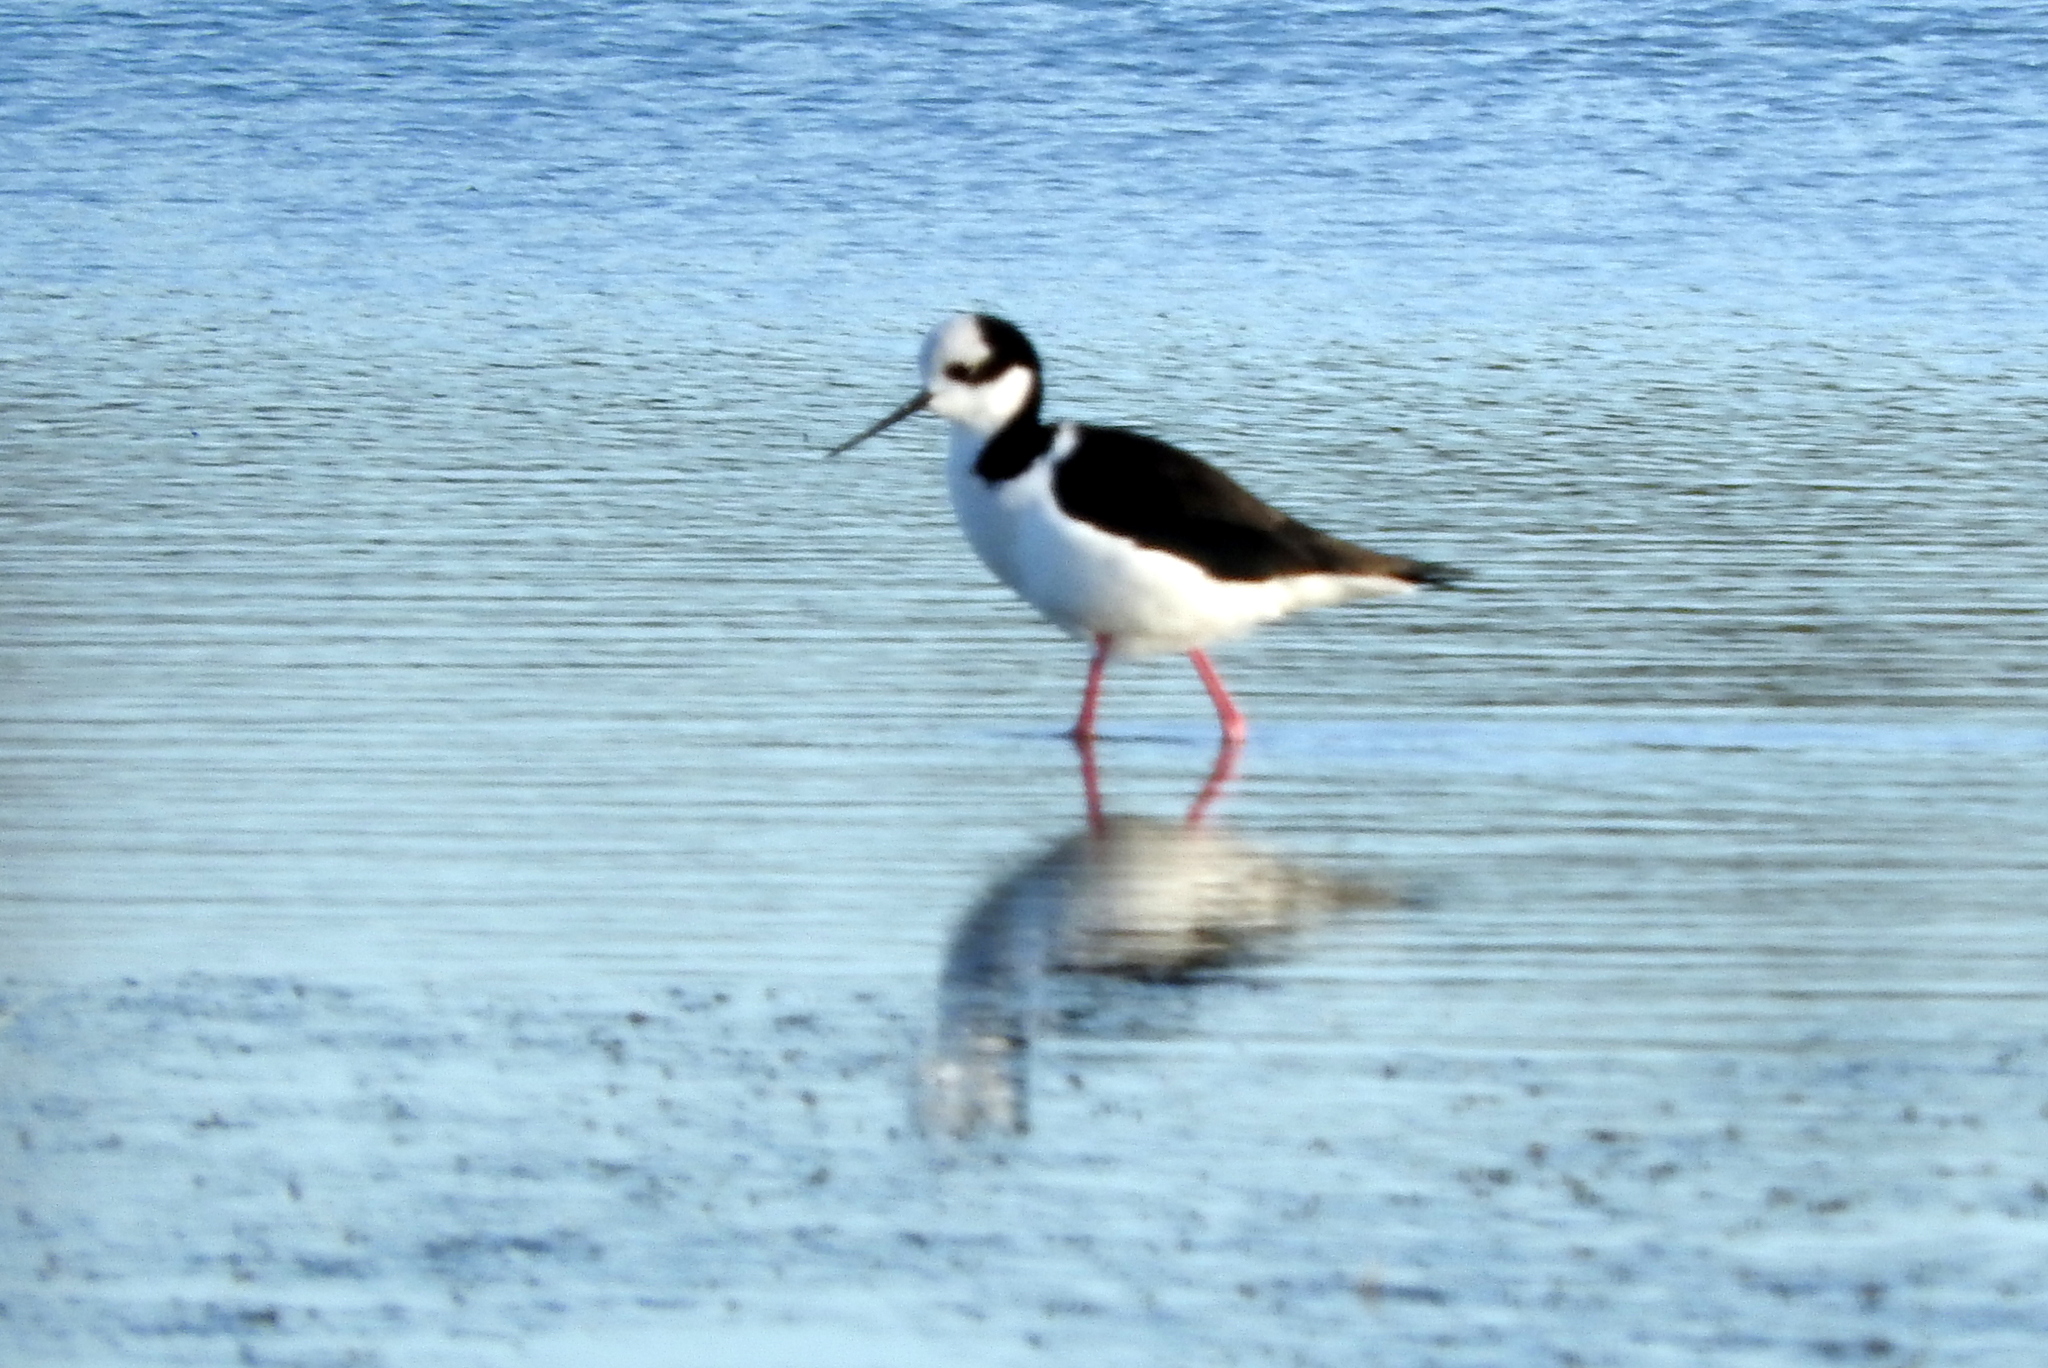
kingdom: Animalia
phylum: Chordata
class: Aves
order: Charadriiformes
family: Recurvirostridae
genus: Himantopus
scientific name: Himantopus mexicanus
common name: Black-necked stilt
